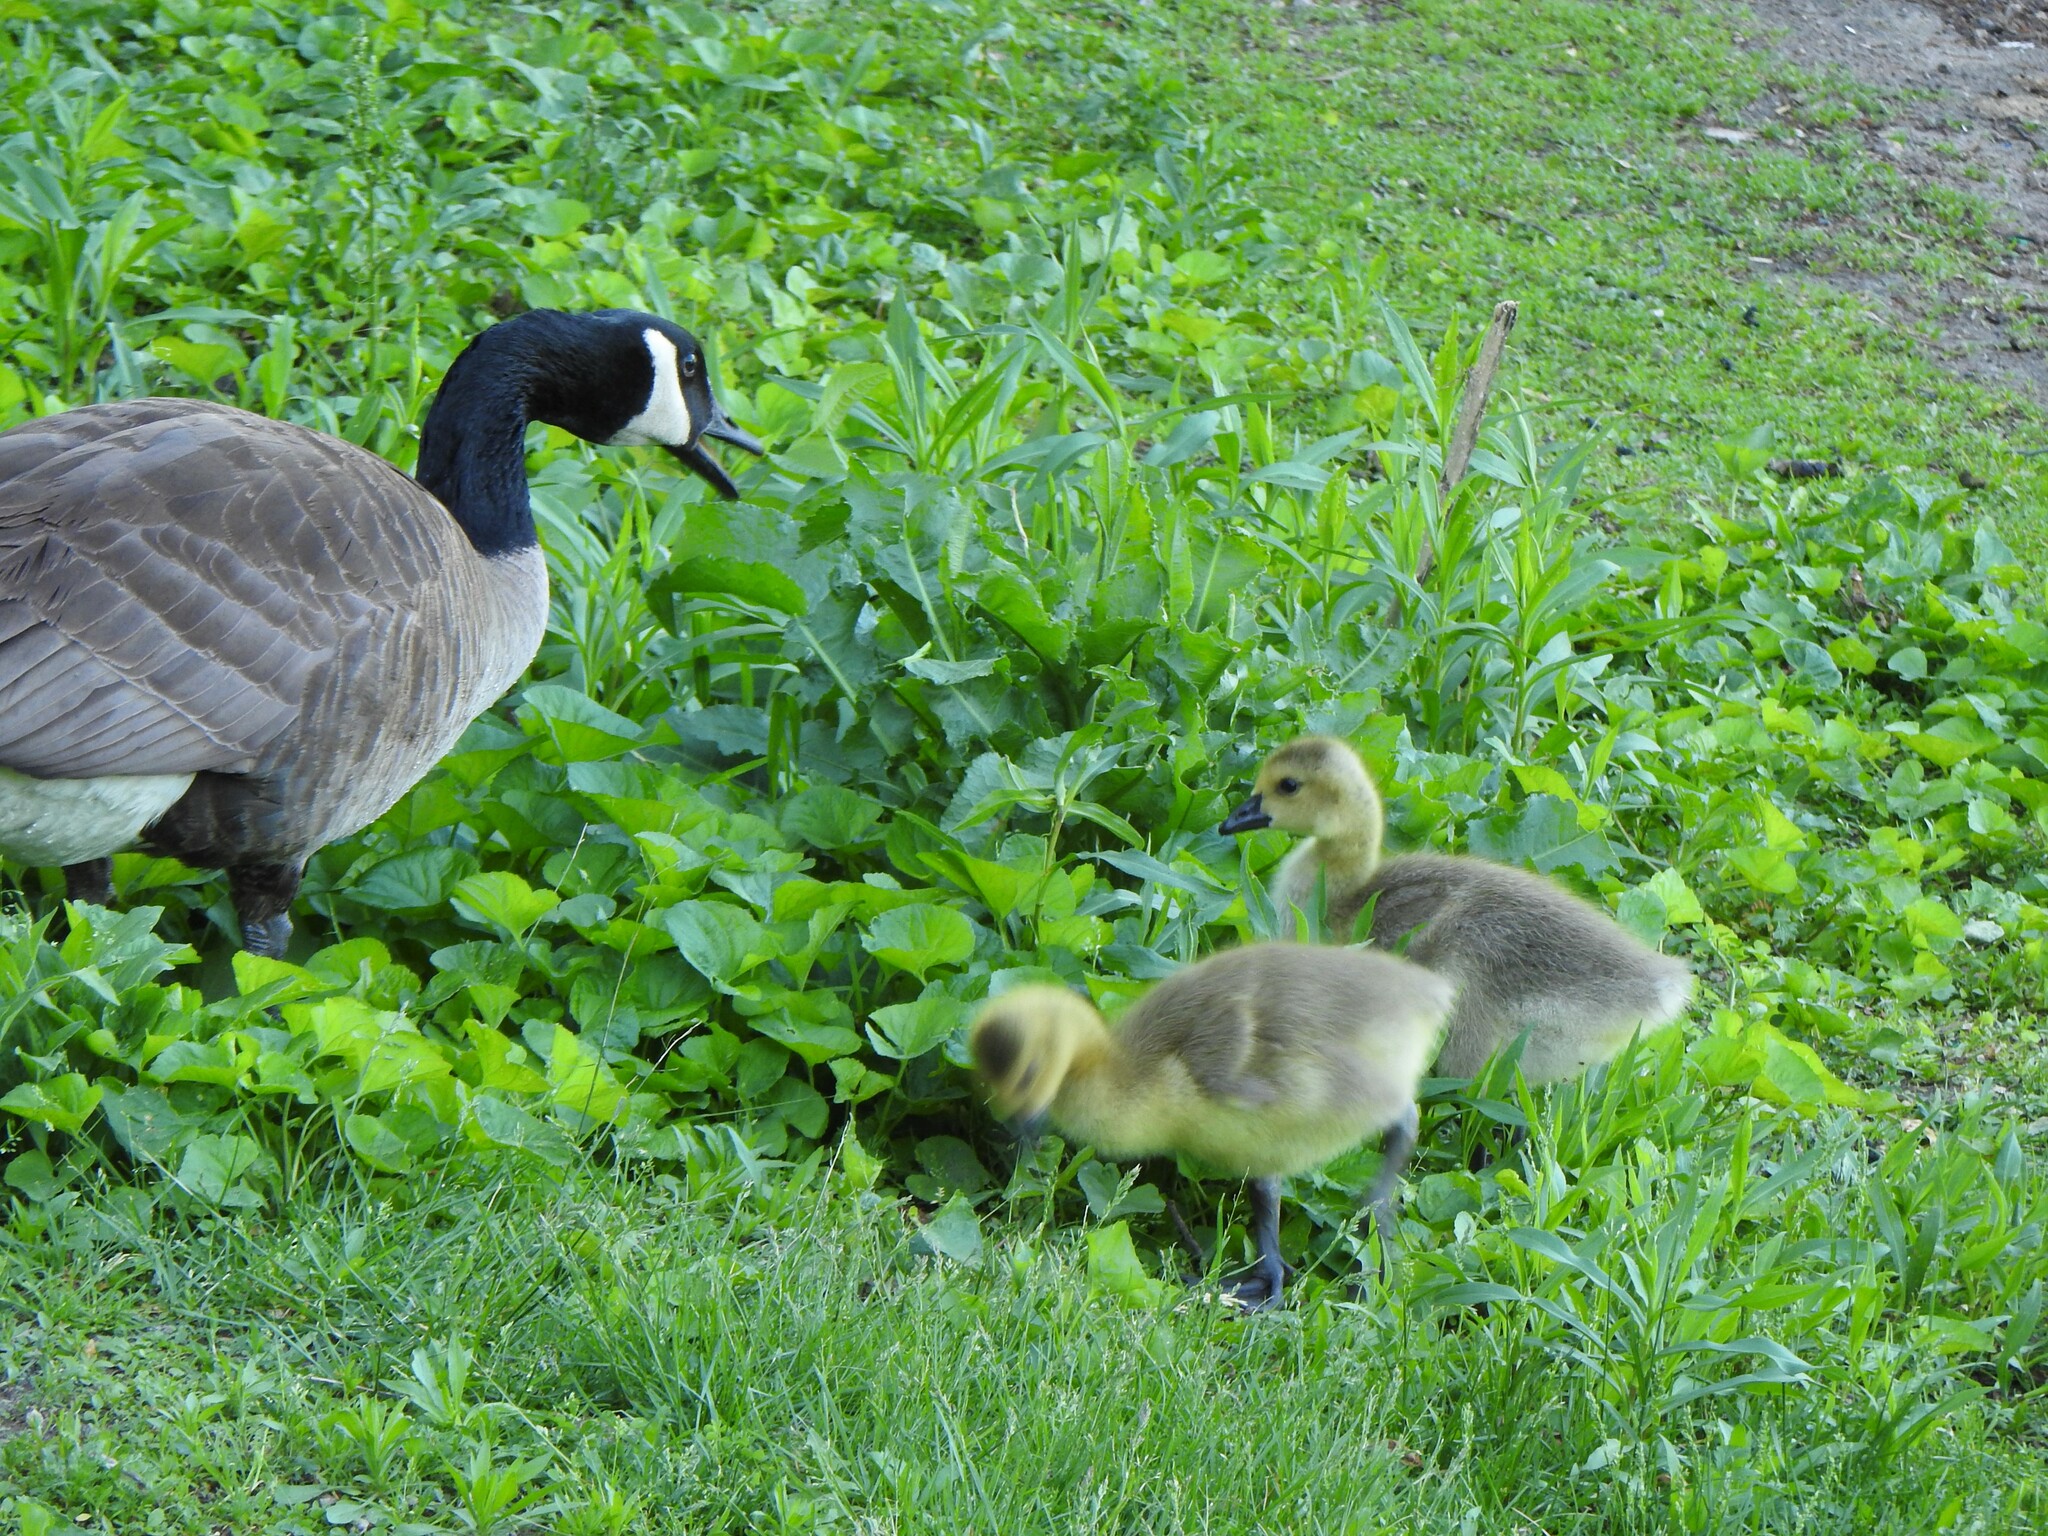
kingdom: Animalia
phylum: Chordata
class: Aves
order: Anseriformes
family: Anatidae
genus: Branta
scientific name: Branta canadensis
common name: Canada goose
